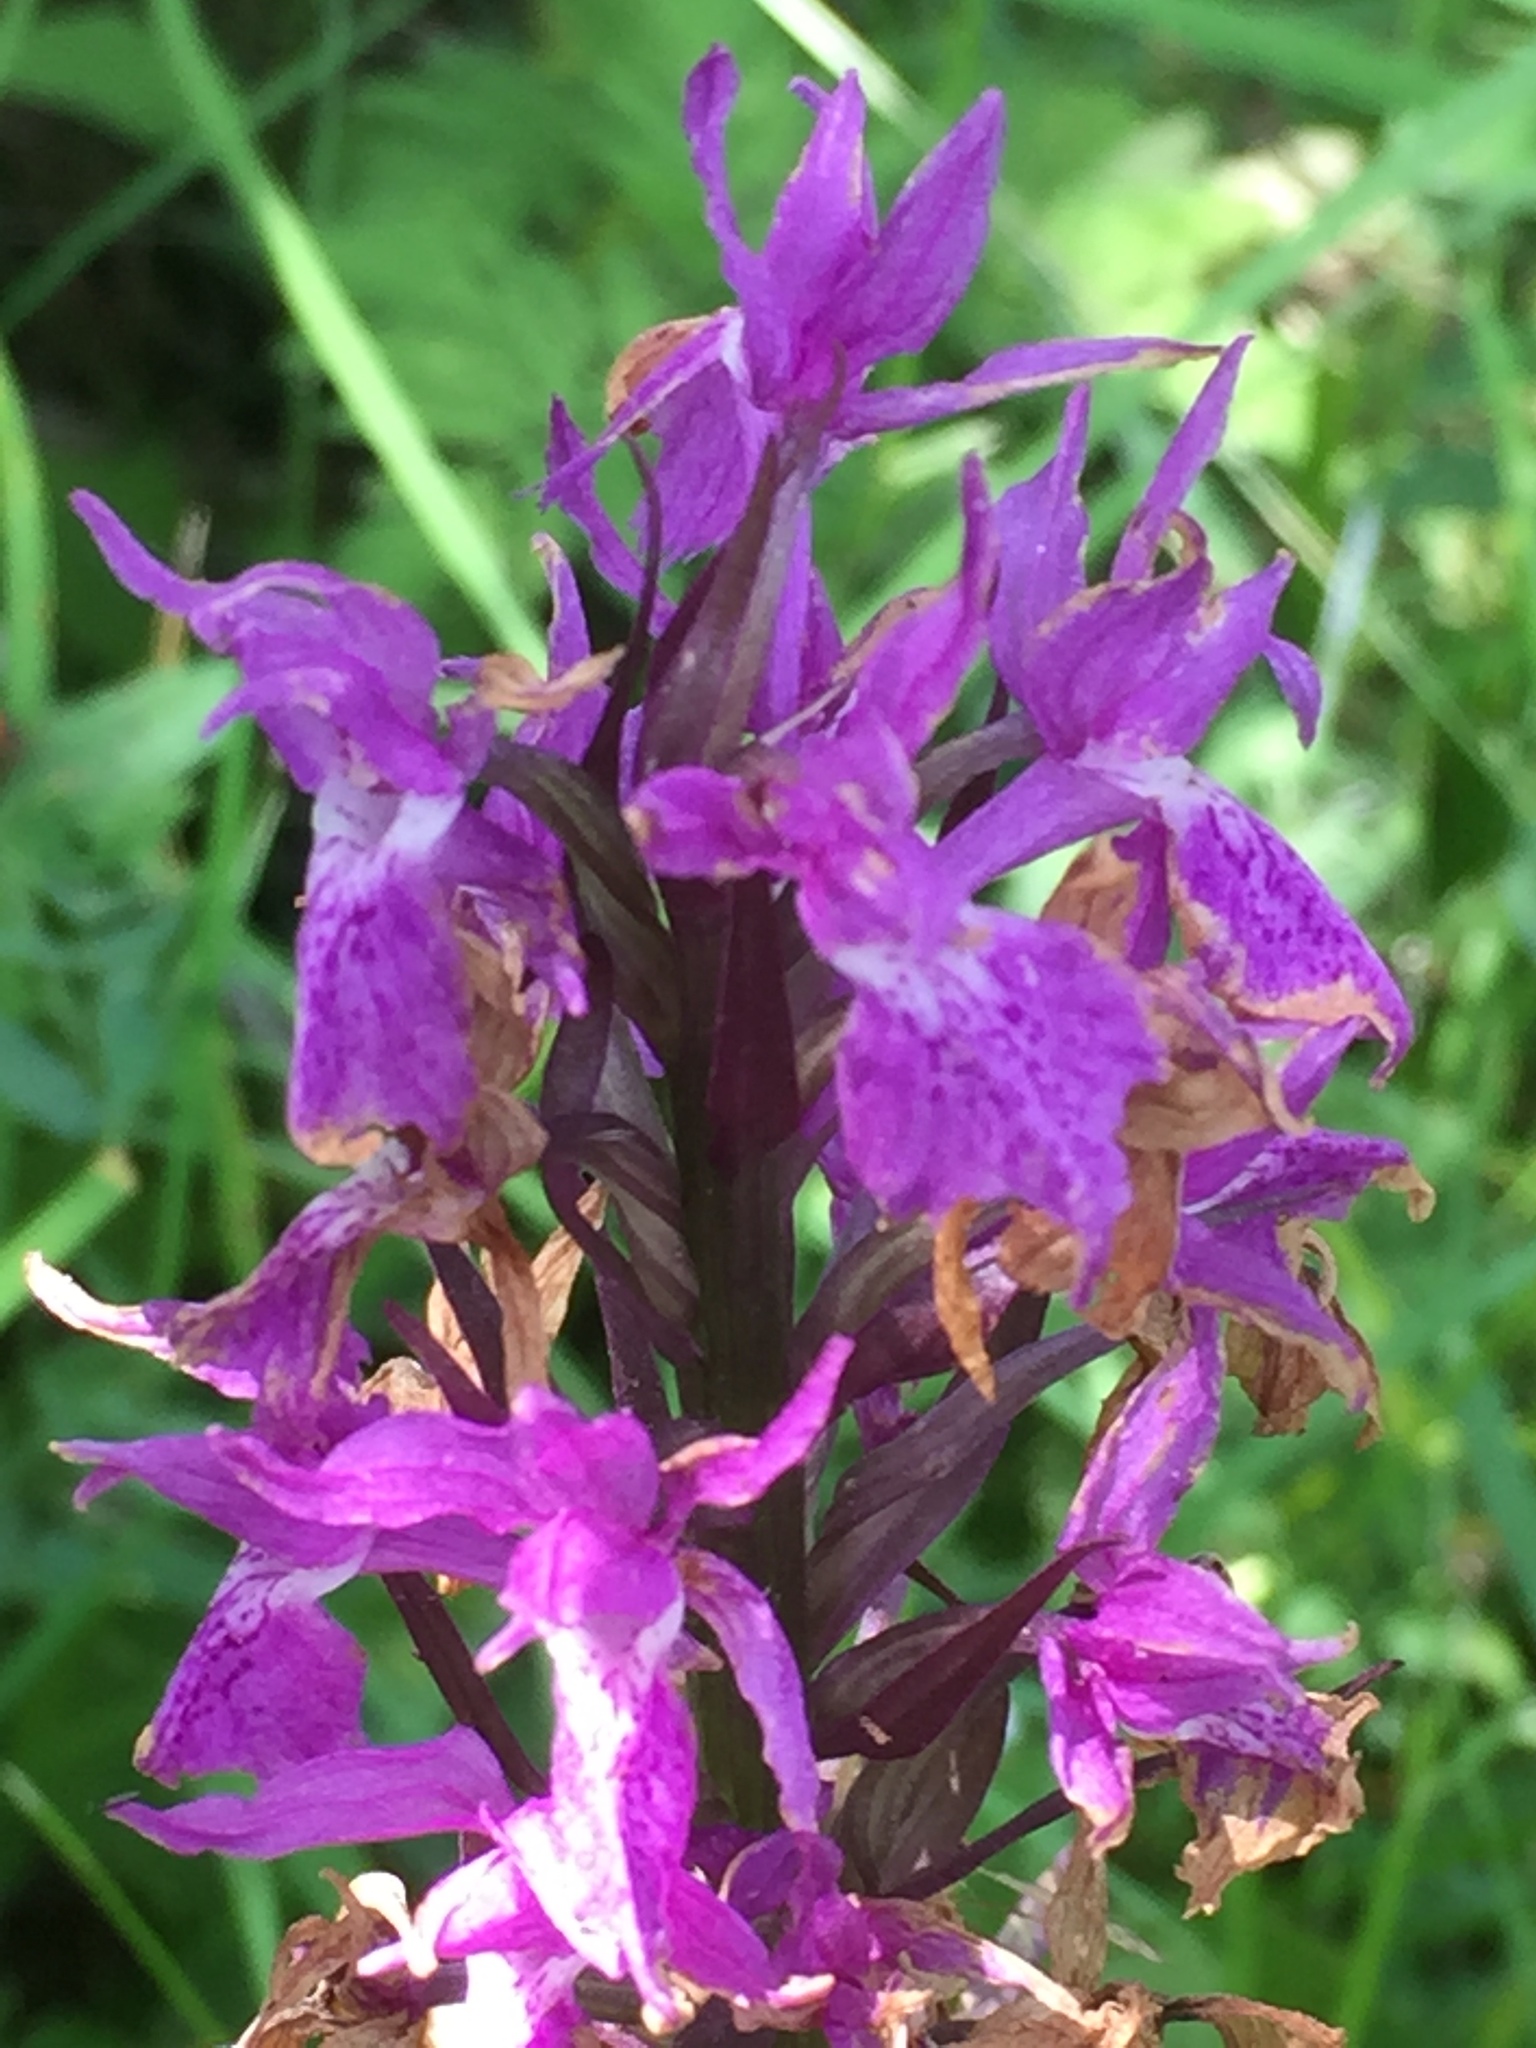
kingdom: Plantae
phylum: Tracheophyta
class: Liliopsida
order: Asparagales
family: Orchidaceae
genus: Orchis
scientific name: Orchis mascula
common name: Early-purple orchid
